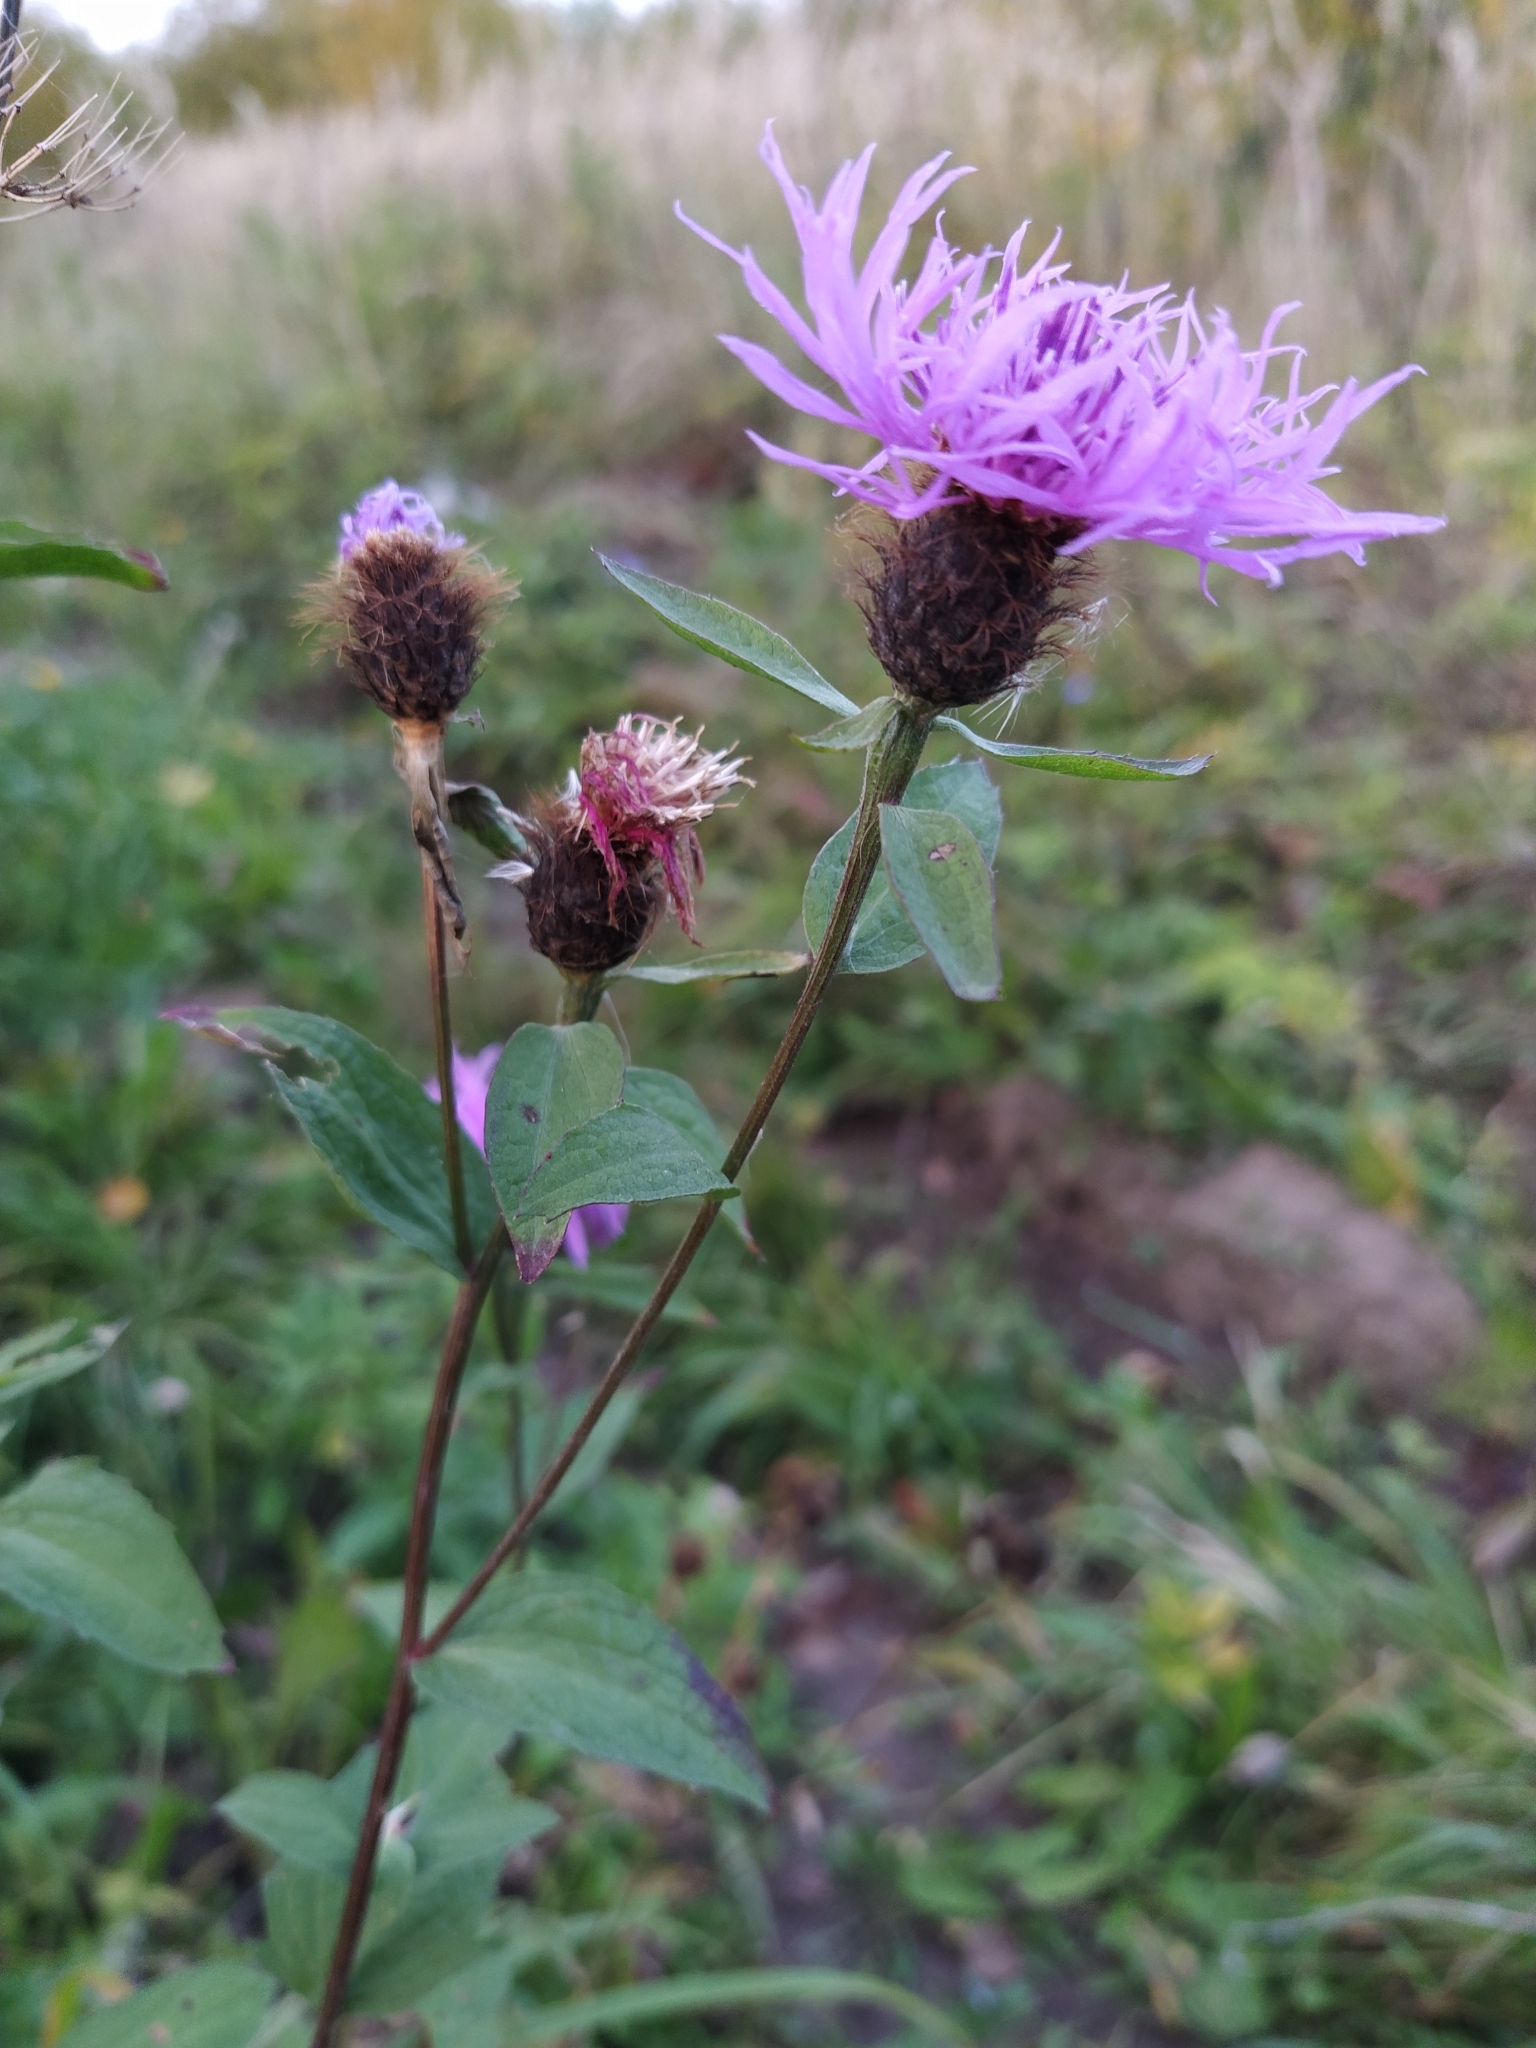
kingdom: Plantae
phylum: Tracheophyta
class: Magnoliopsida
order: Asterales
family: Asteraceae
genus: Centaurea
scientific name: Centaurea phrygia
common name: Wig knapweed
